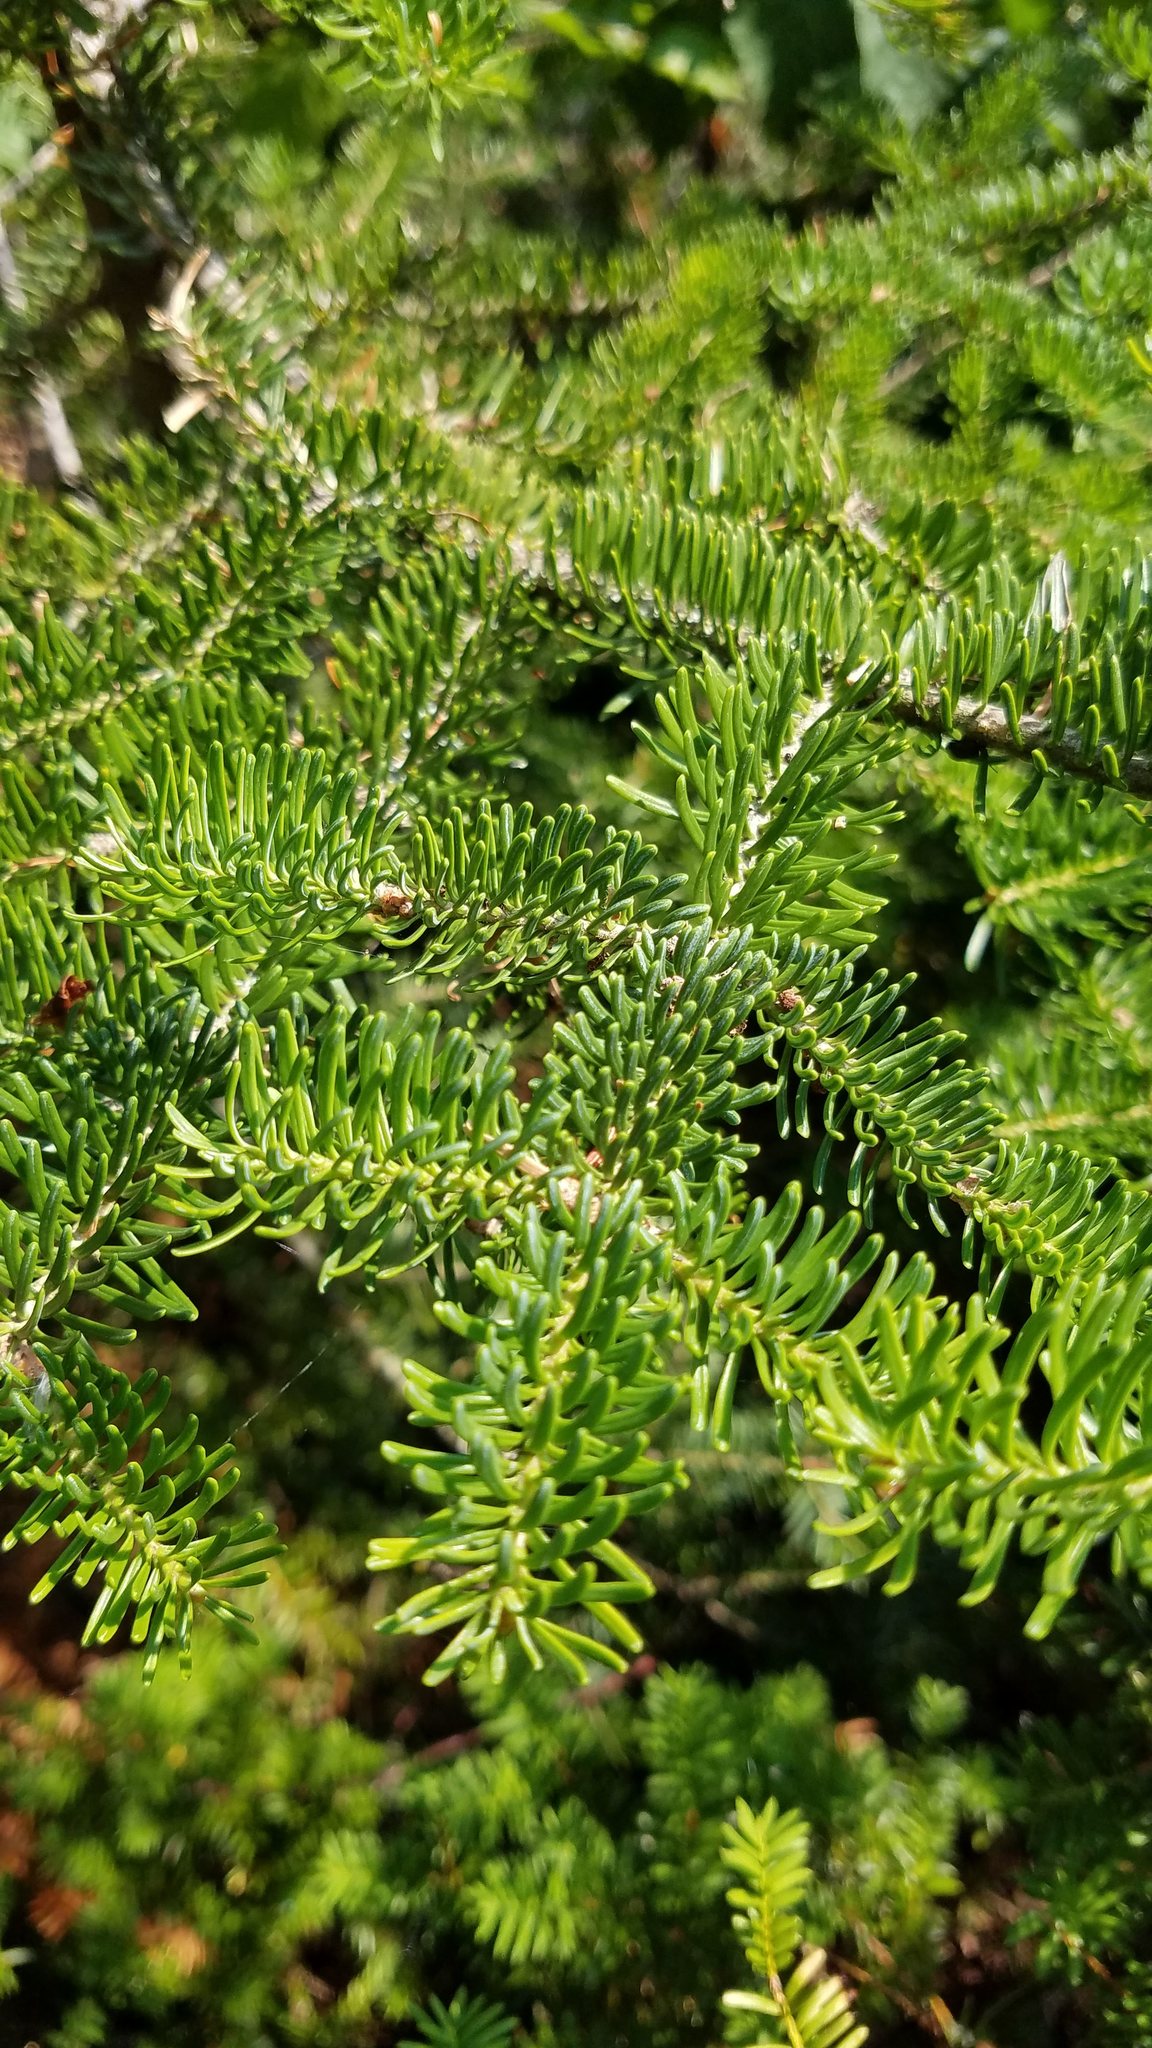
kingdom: Plantae
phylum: Tracheophyta
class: Pinopsida
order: Pinales
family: Pinaceae
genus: Abies
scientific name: Abies balsamea
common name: Balsam fir
